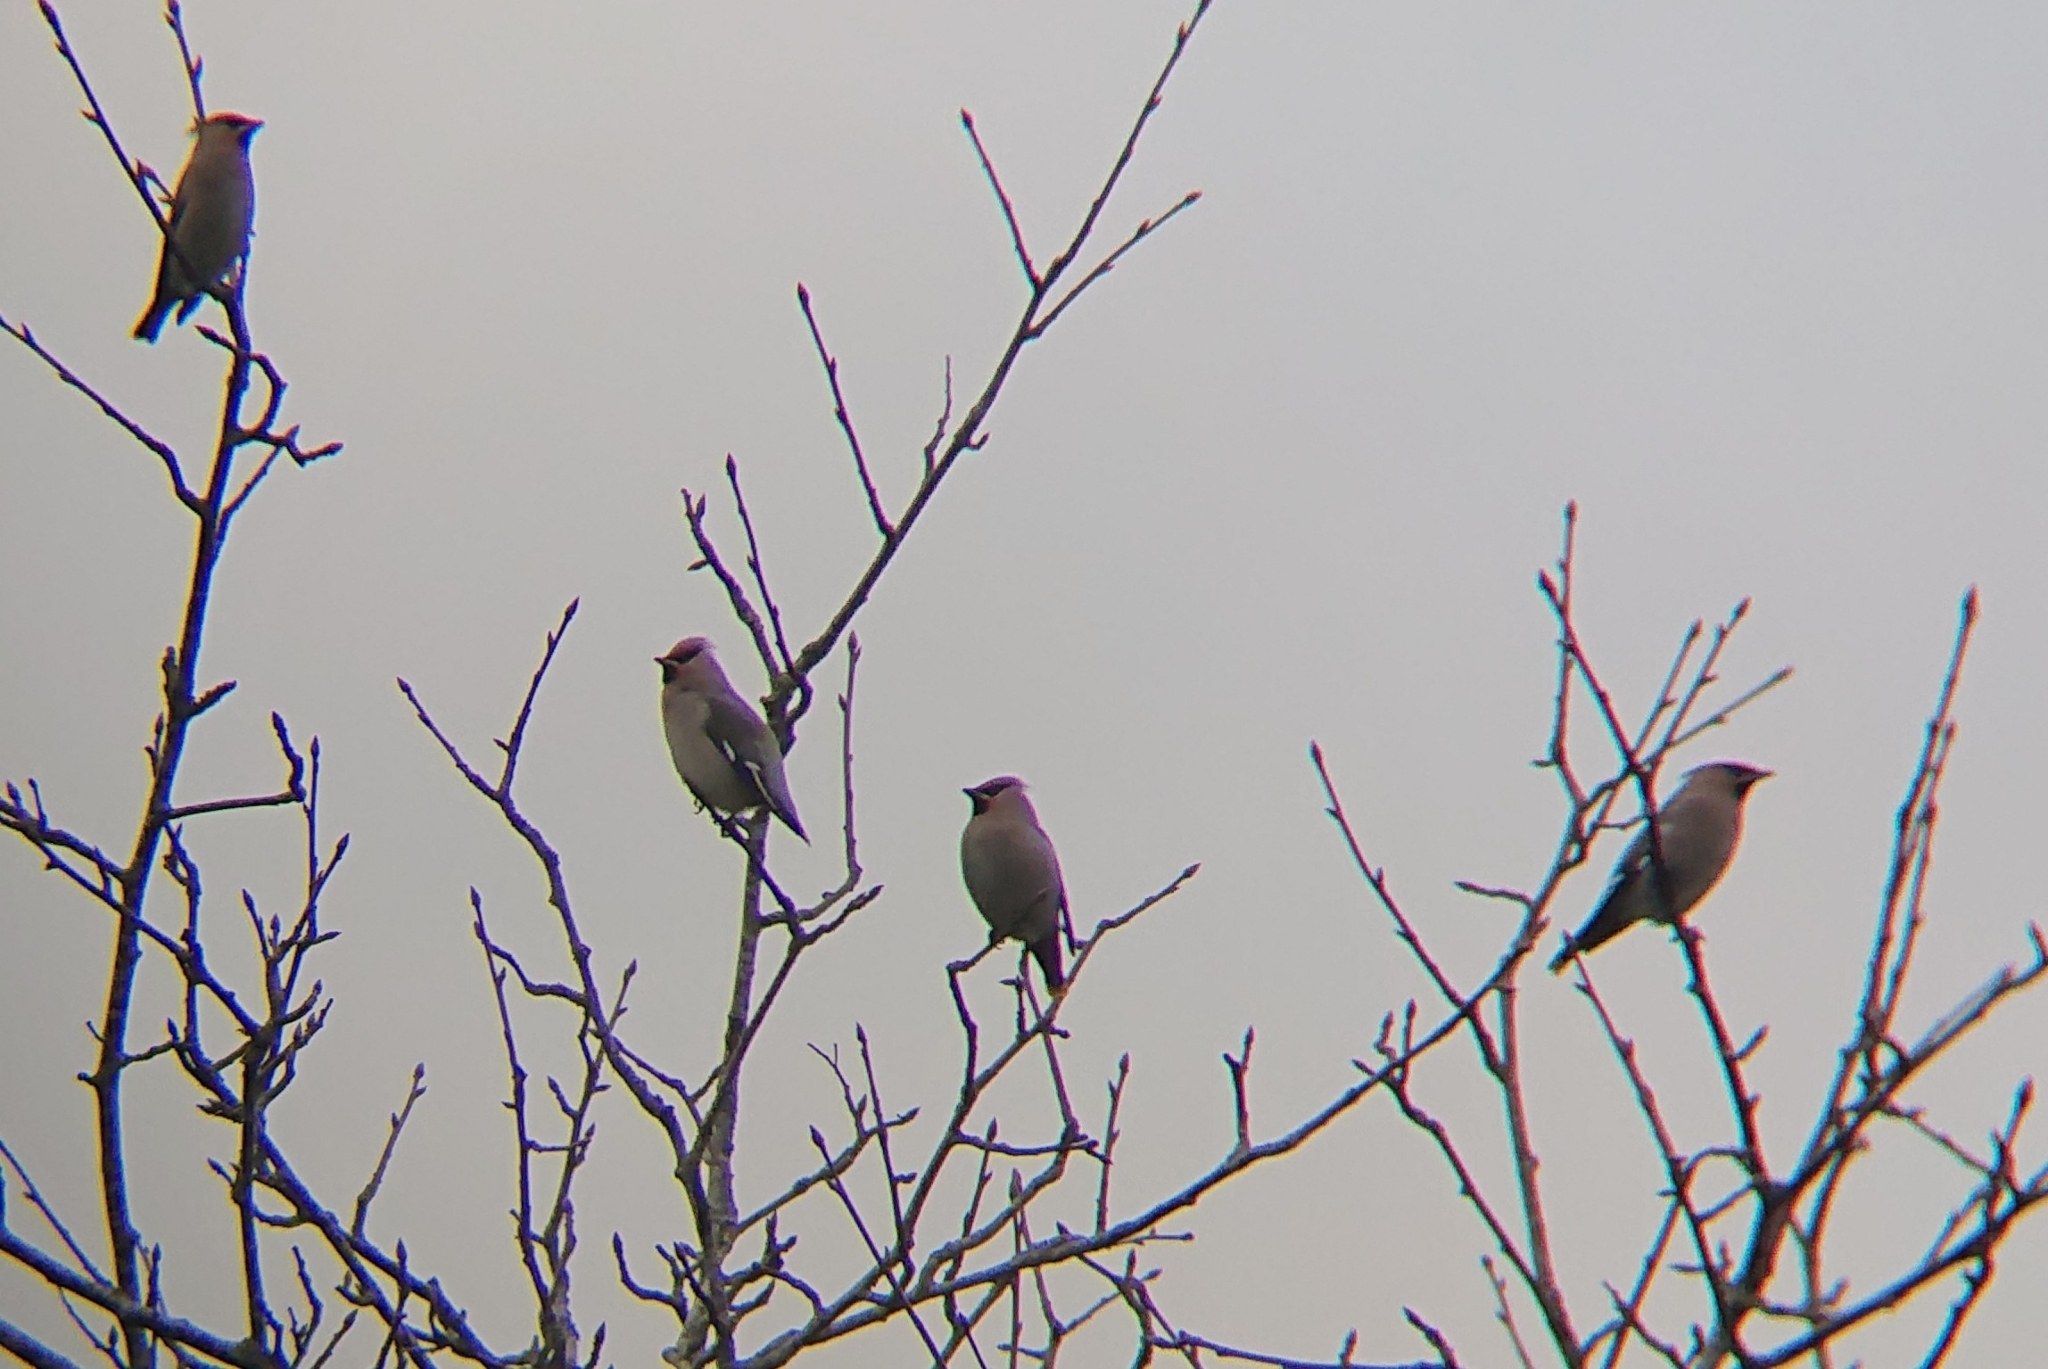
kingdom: Animalia
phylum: Chordata
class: Aves
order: Passeriformes
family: Bombycillidae
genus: Bombycilla
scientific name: Bombycilla garrulus
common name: Bohemian waxwing
